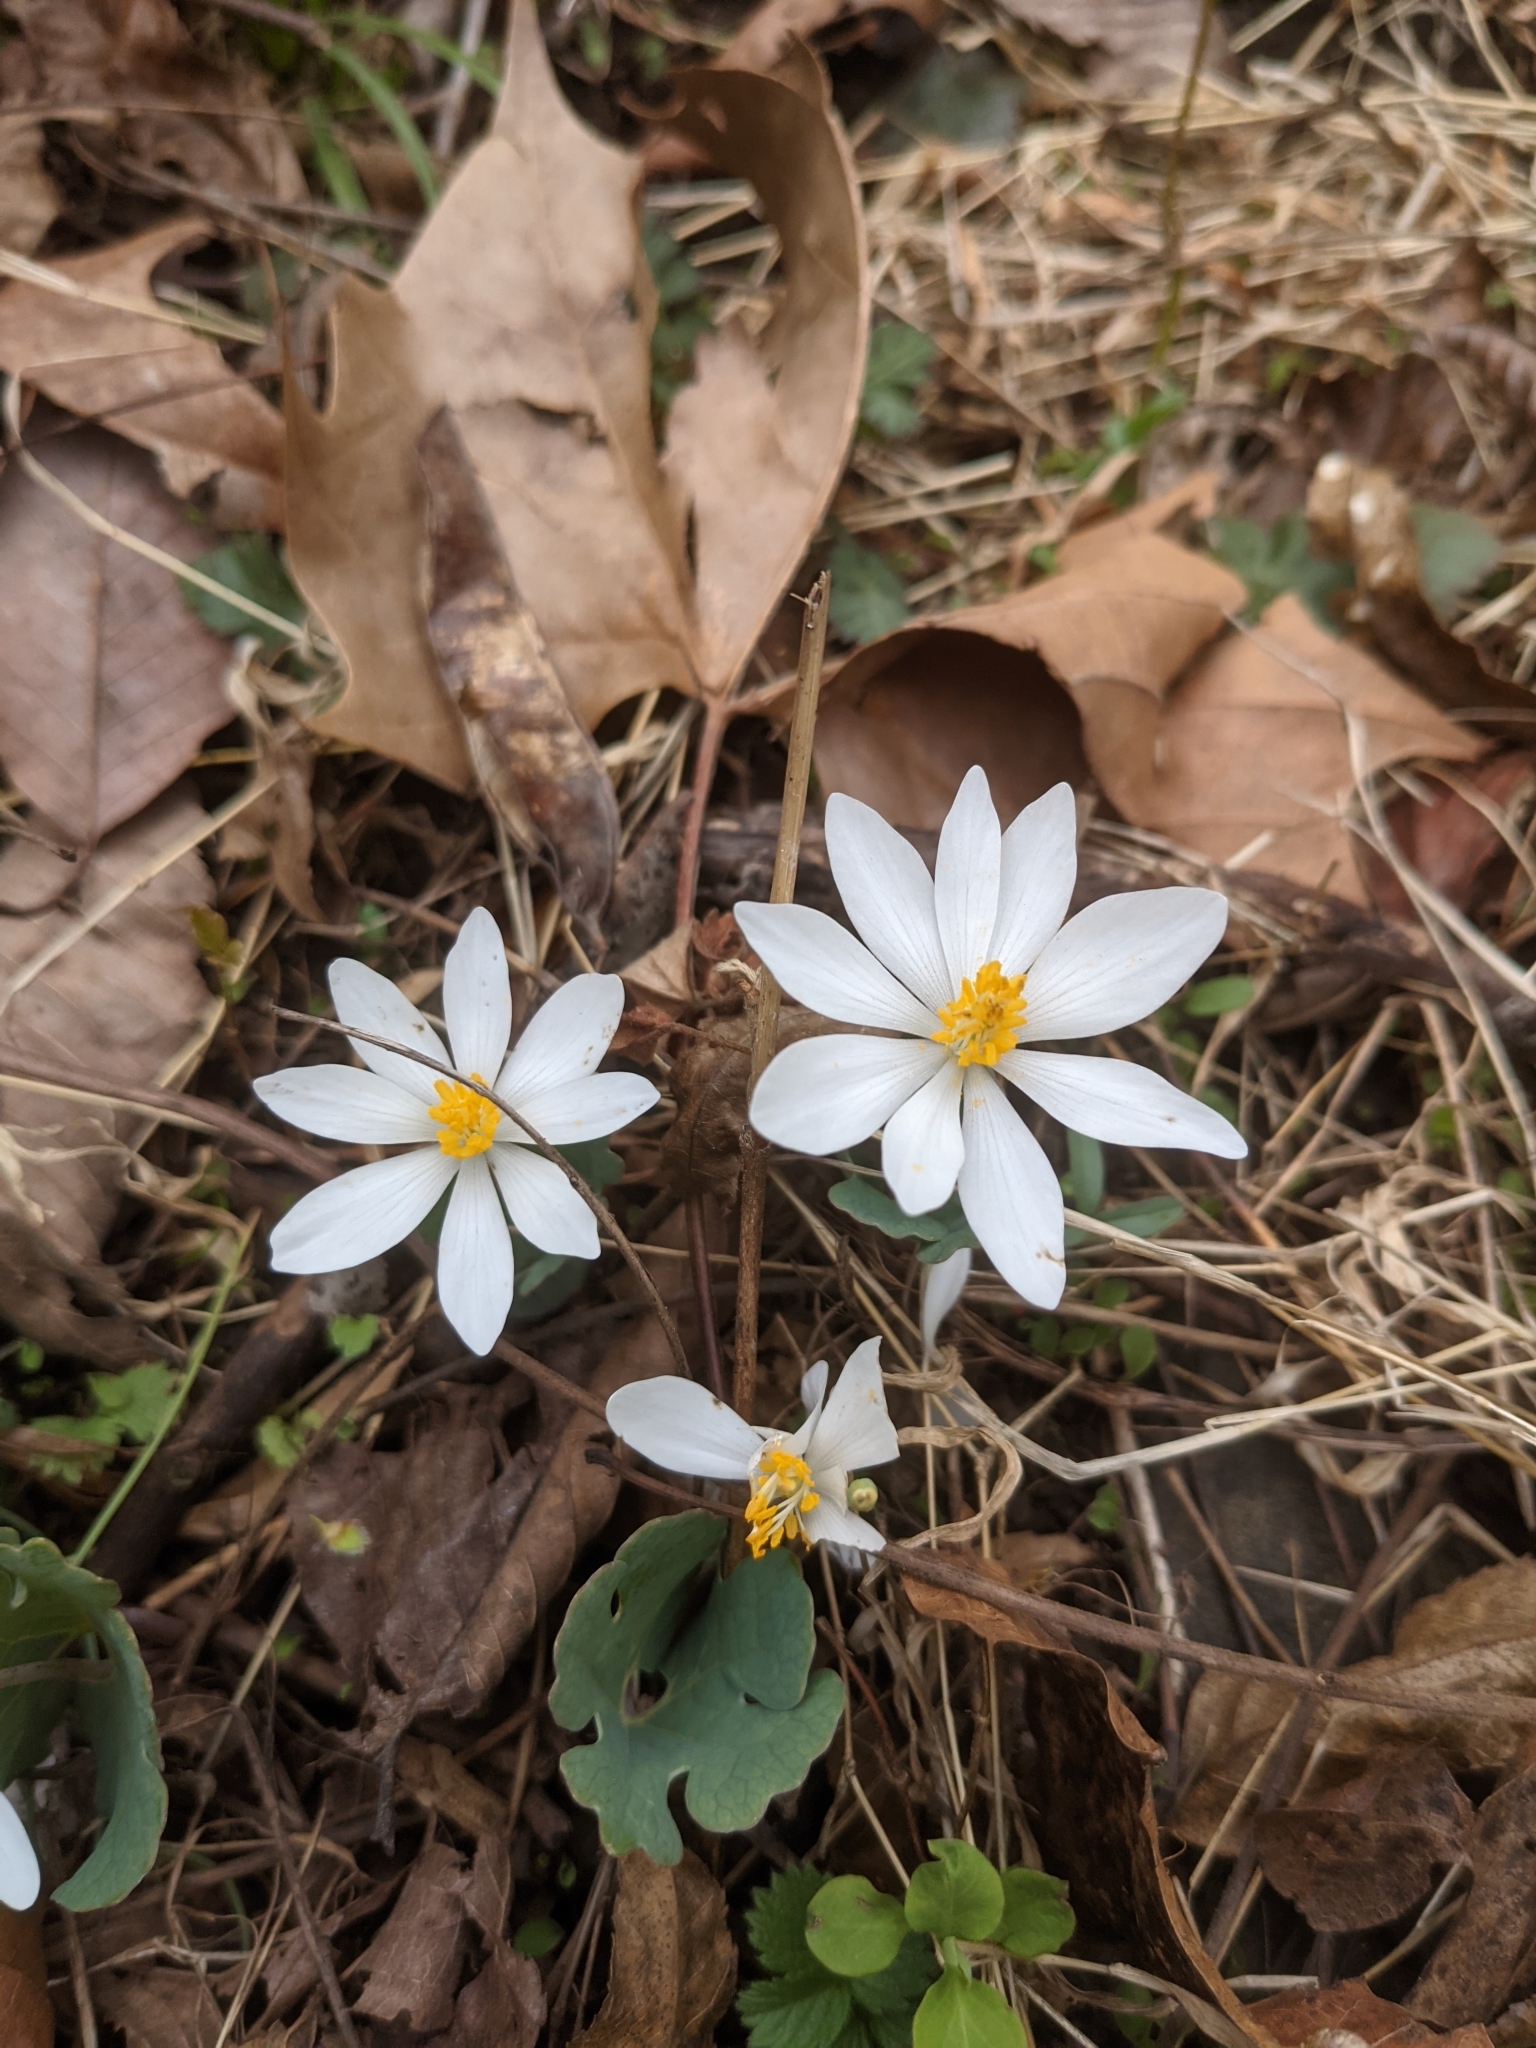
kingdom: Plantae
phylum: Tracheophyta
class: Magnoliopsida
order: Ranunculales
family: Papaveraceae
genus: Sanguinaria
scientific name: Sanguinaria canadensis
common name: Bloodroot
